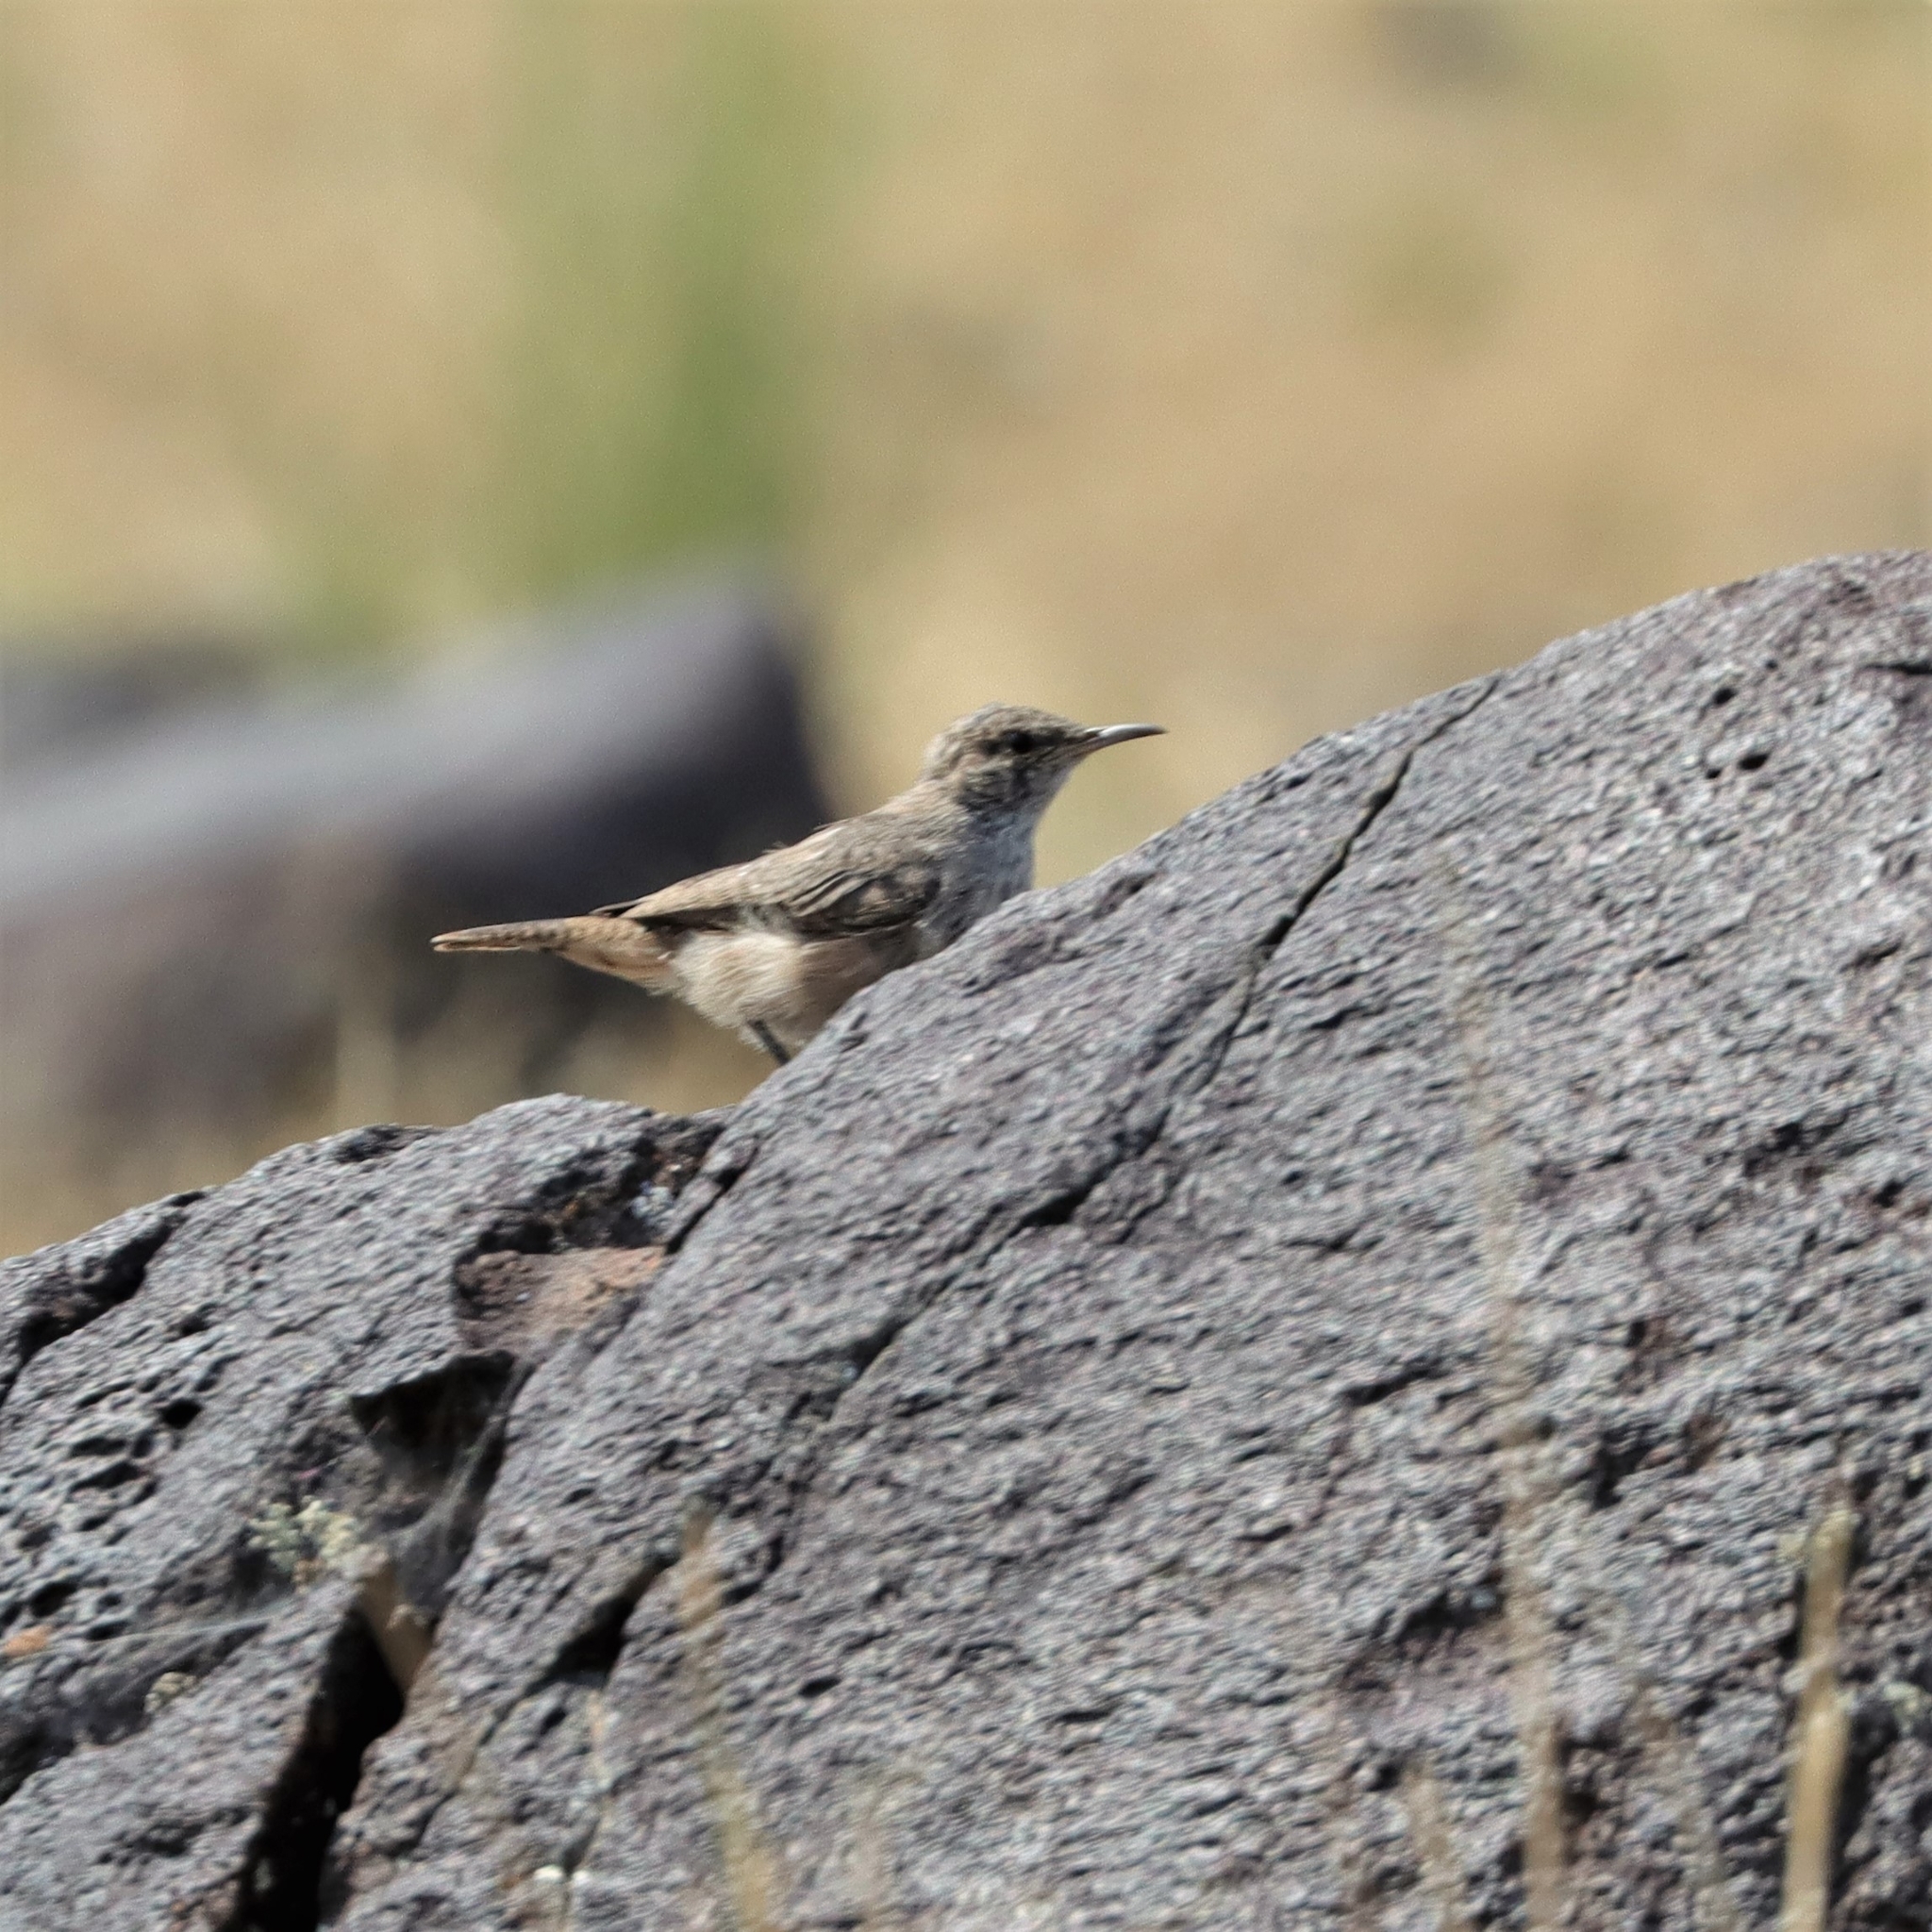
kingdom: Animalia
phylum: Chordata
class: Aves
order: Passeriformes
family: Troglodytidae
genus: Salpinctes
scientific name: Salpinctes obsoletus
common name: Rock wren
